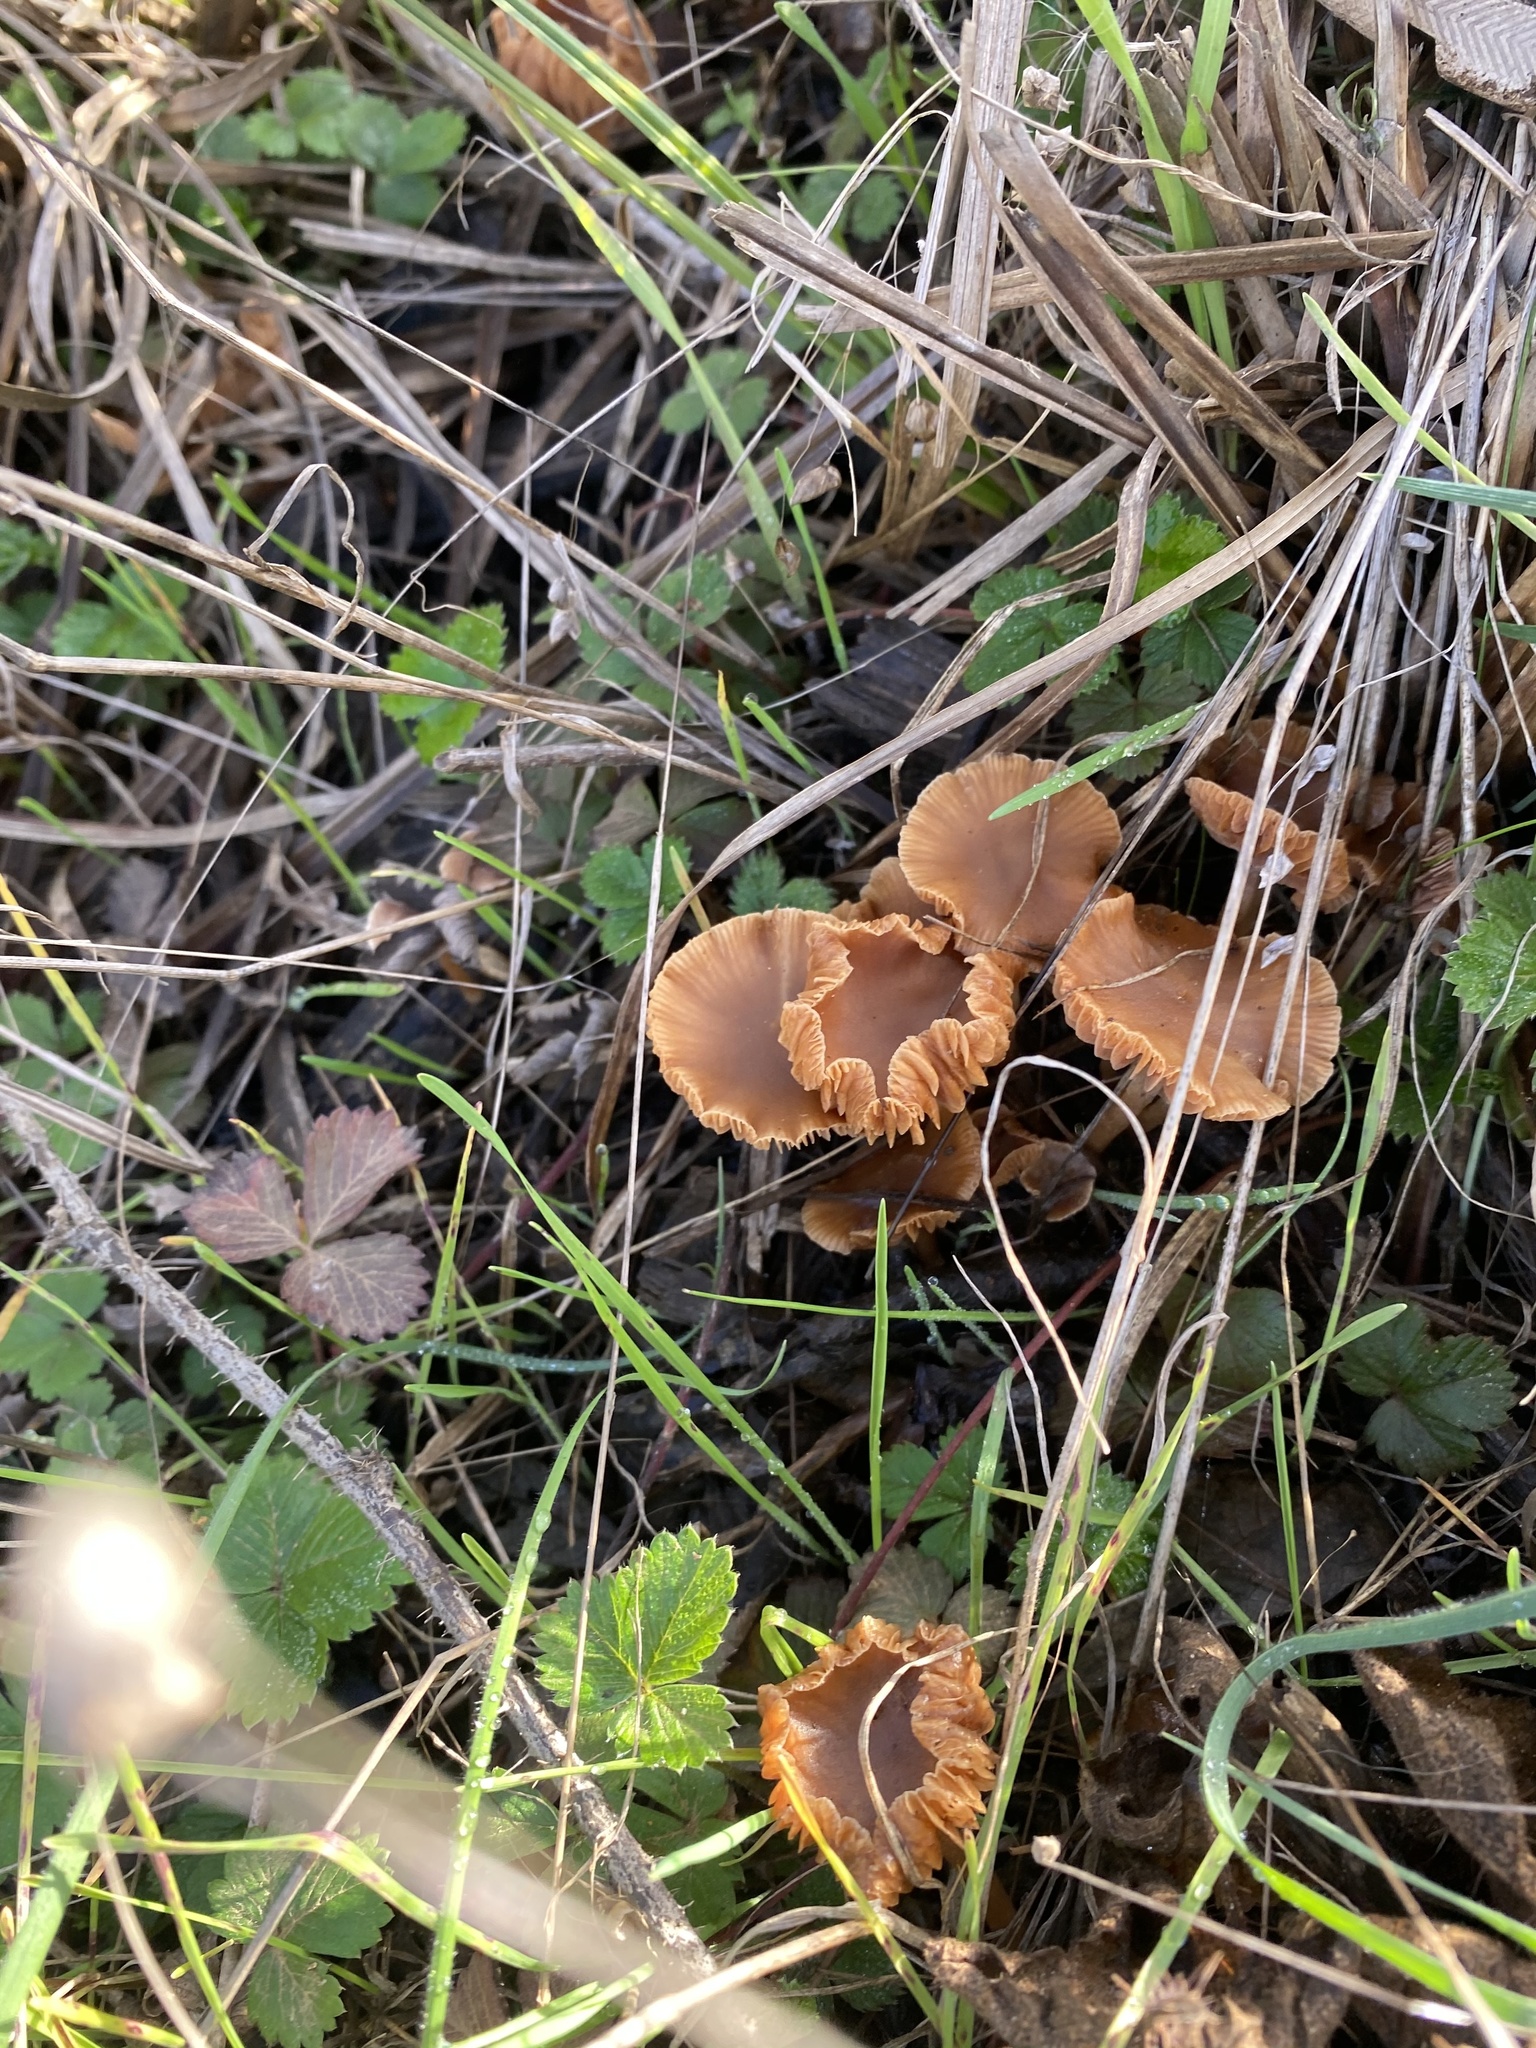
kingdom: Fungi
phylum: Basidiomycota
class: Agaricomycetes
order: Agaricales
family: Tubariaceae
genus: Tubaria
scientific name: Tubaria furfuracea
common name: Scurfy twiglet
